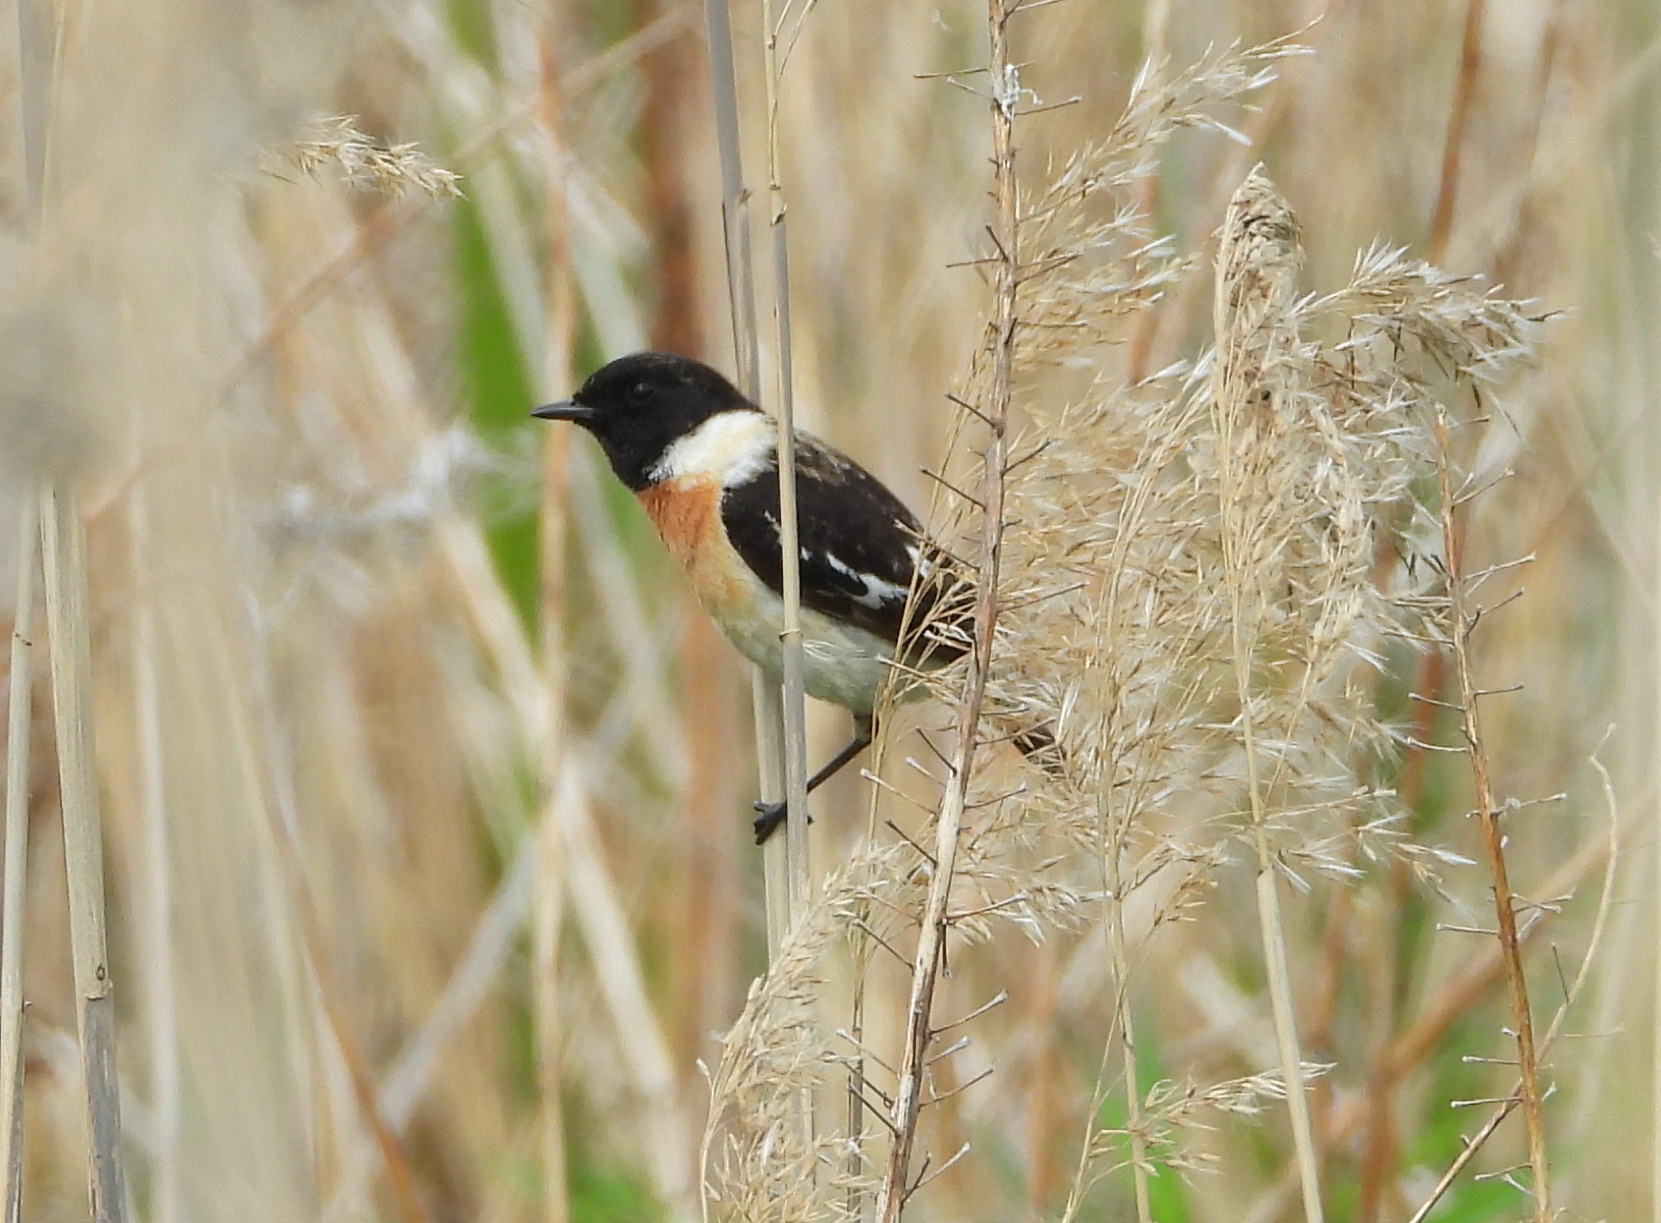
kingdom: Animalia
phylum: Chordata
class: Aves
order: Passeriformes
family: Muscicapidae
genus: Saxicola
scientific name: Saxicola maurus
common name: Siberian stonechat
